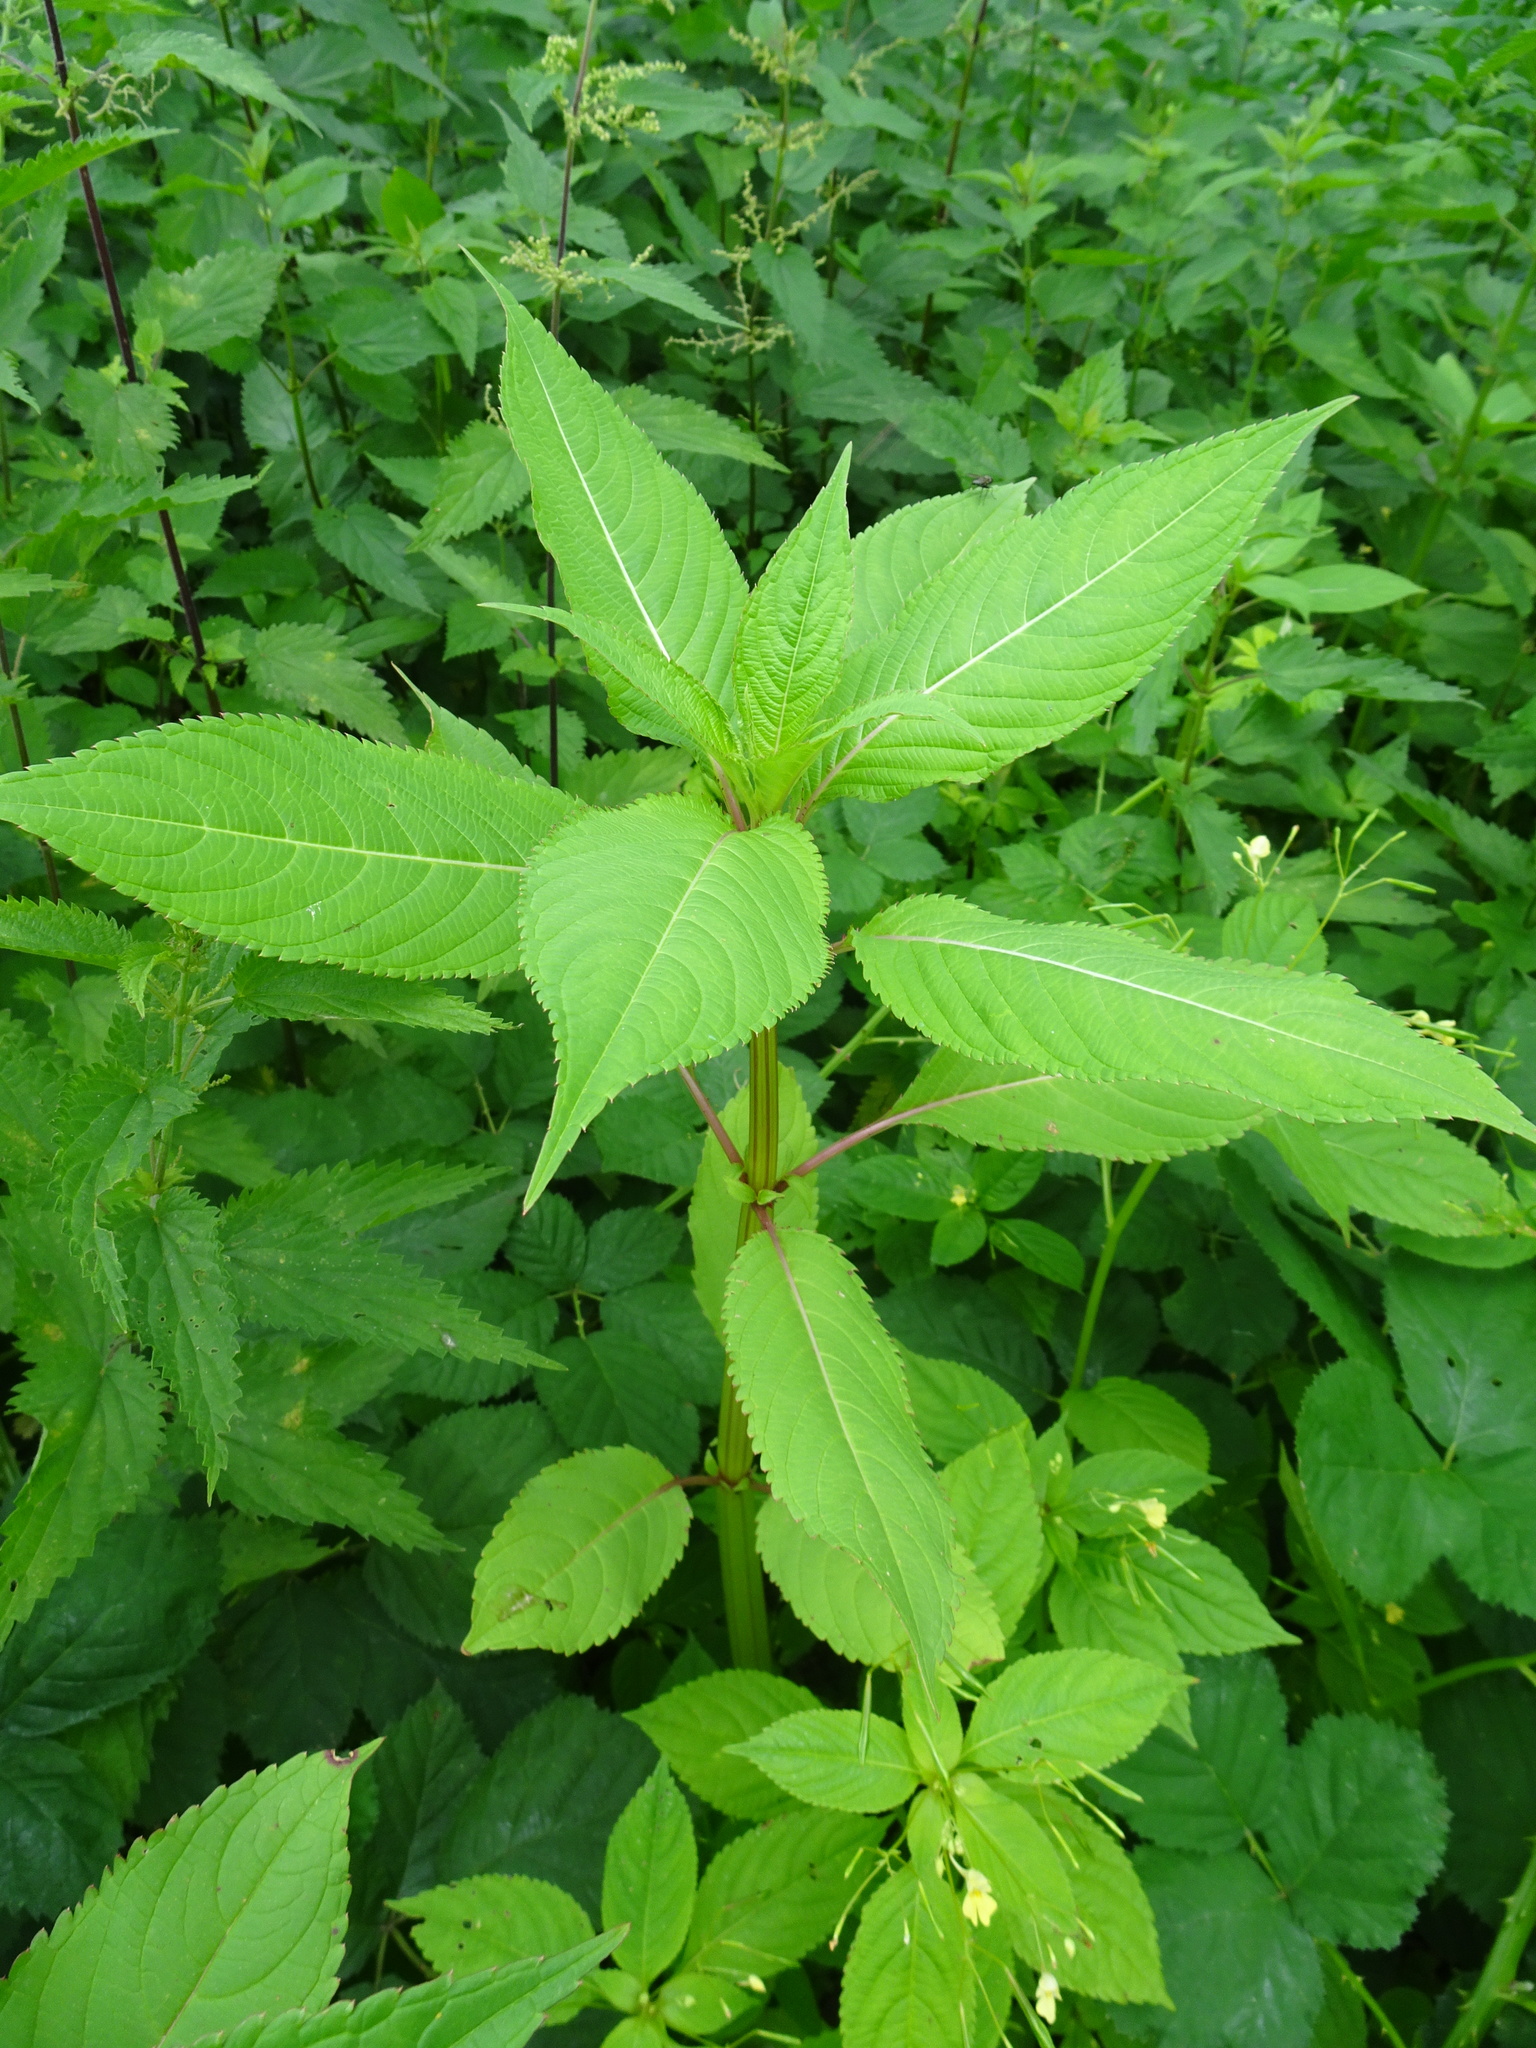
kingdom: Plantae
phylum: Tracheophyta
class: Magnoliopsida
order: Ericales
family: Balsaminaceae
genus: Impatiens
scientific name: Impatiens glandulifera
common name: Himalayan balsam
